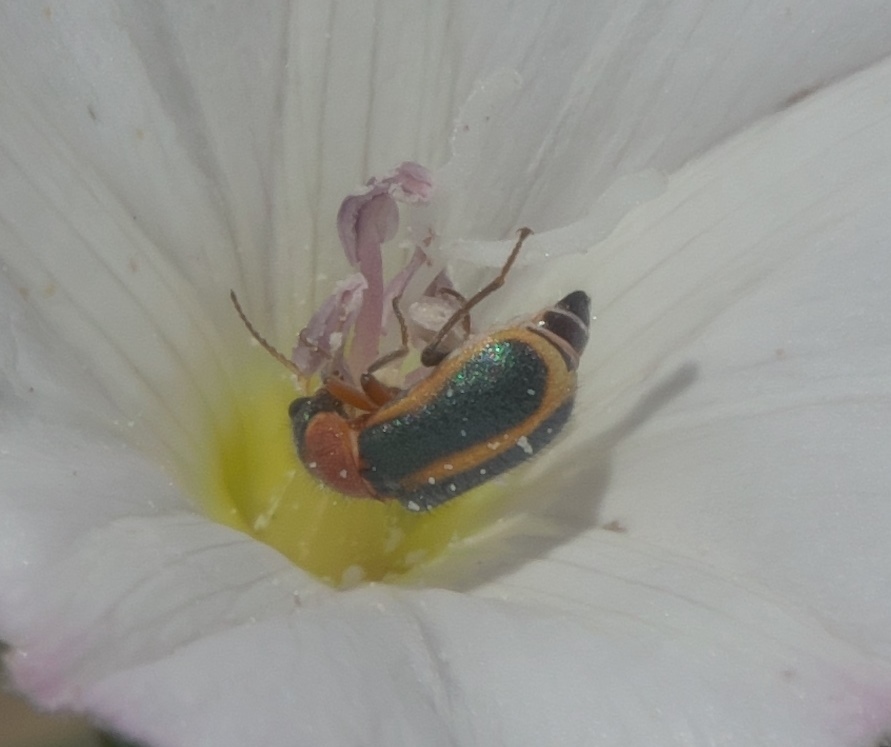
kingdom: Animalia
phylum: Arthropoda
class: Insecta
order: Coleoptera
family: Melyridae
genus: Collops
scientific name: Collops
